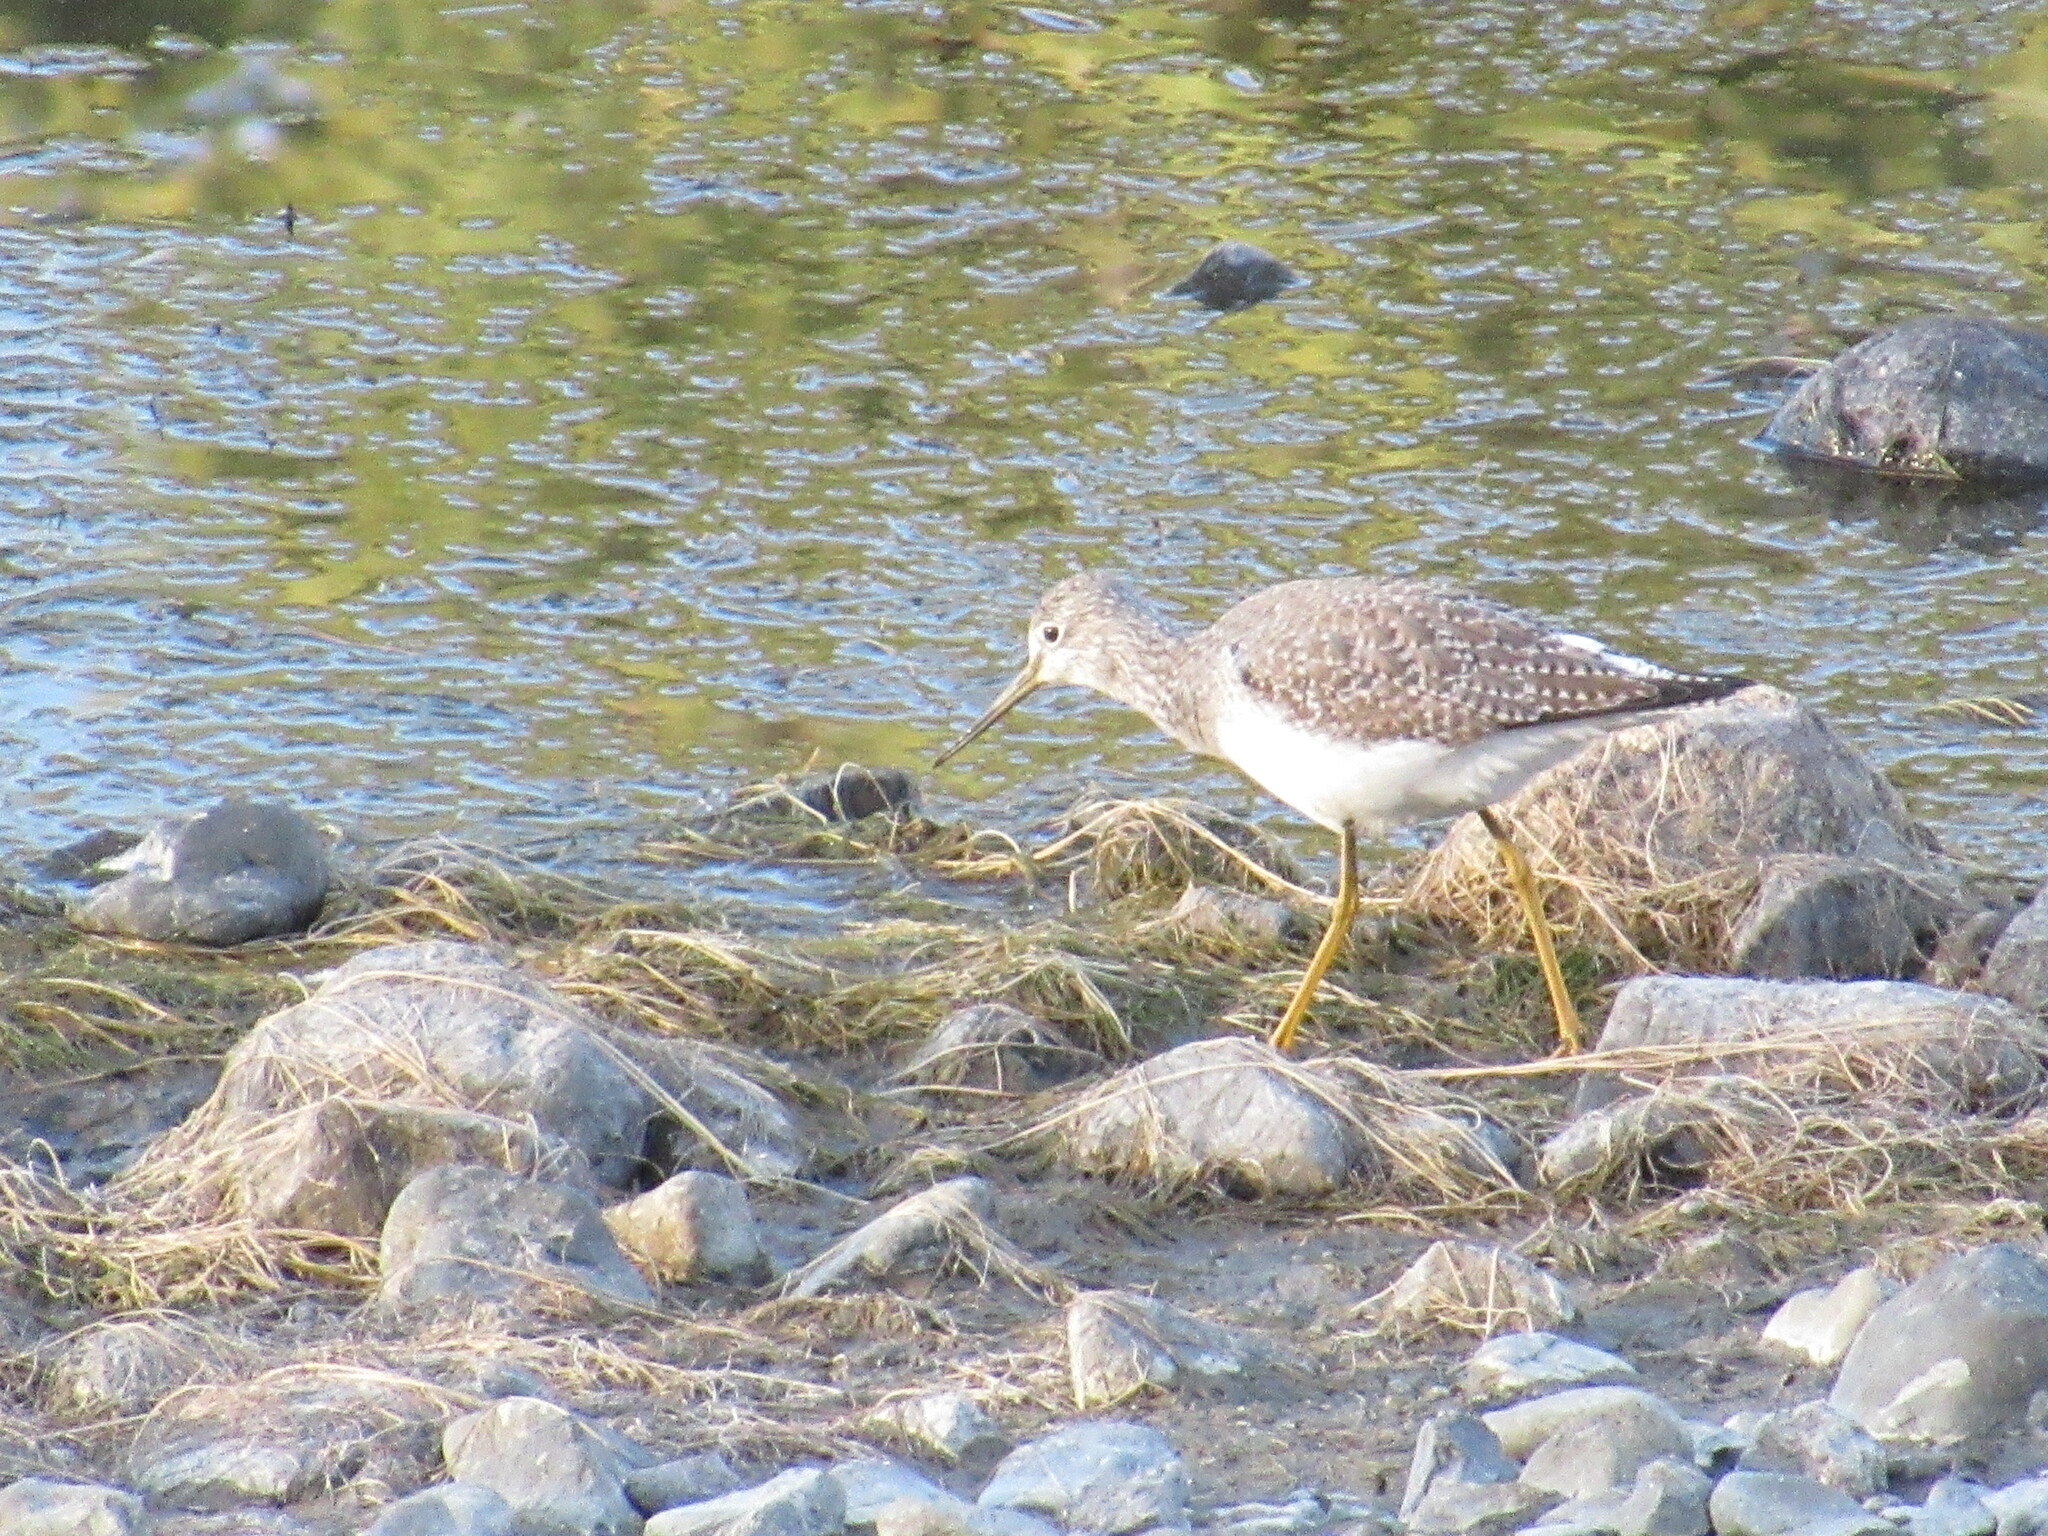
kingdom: Animalia
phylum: Chordata
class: Aves
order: Charadriiformes
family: Scolopacidae
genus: Tringa
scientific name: Tringa melanoleuca
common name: Greater yellowlegs
